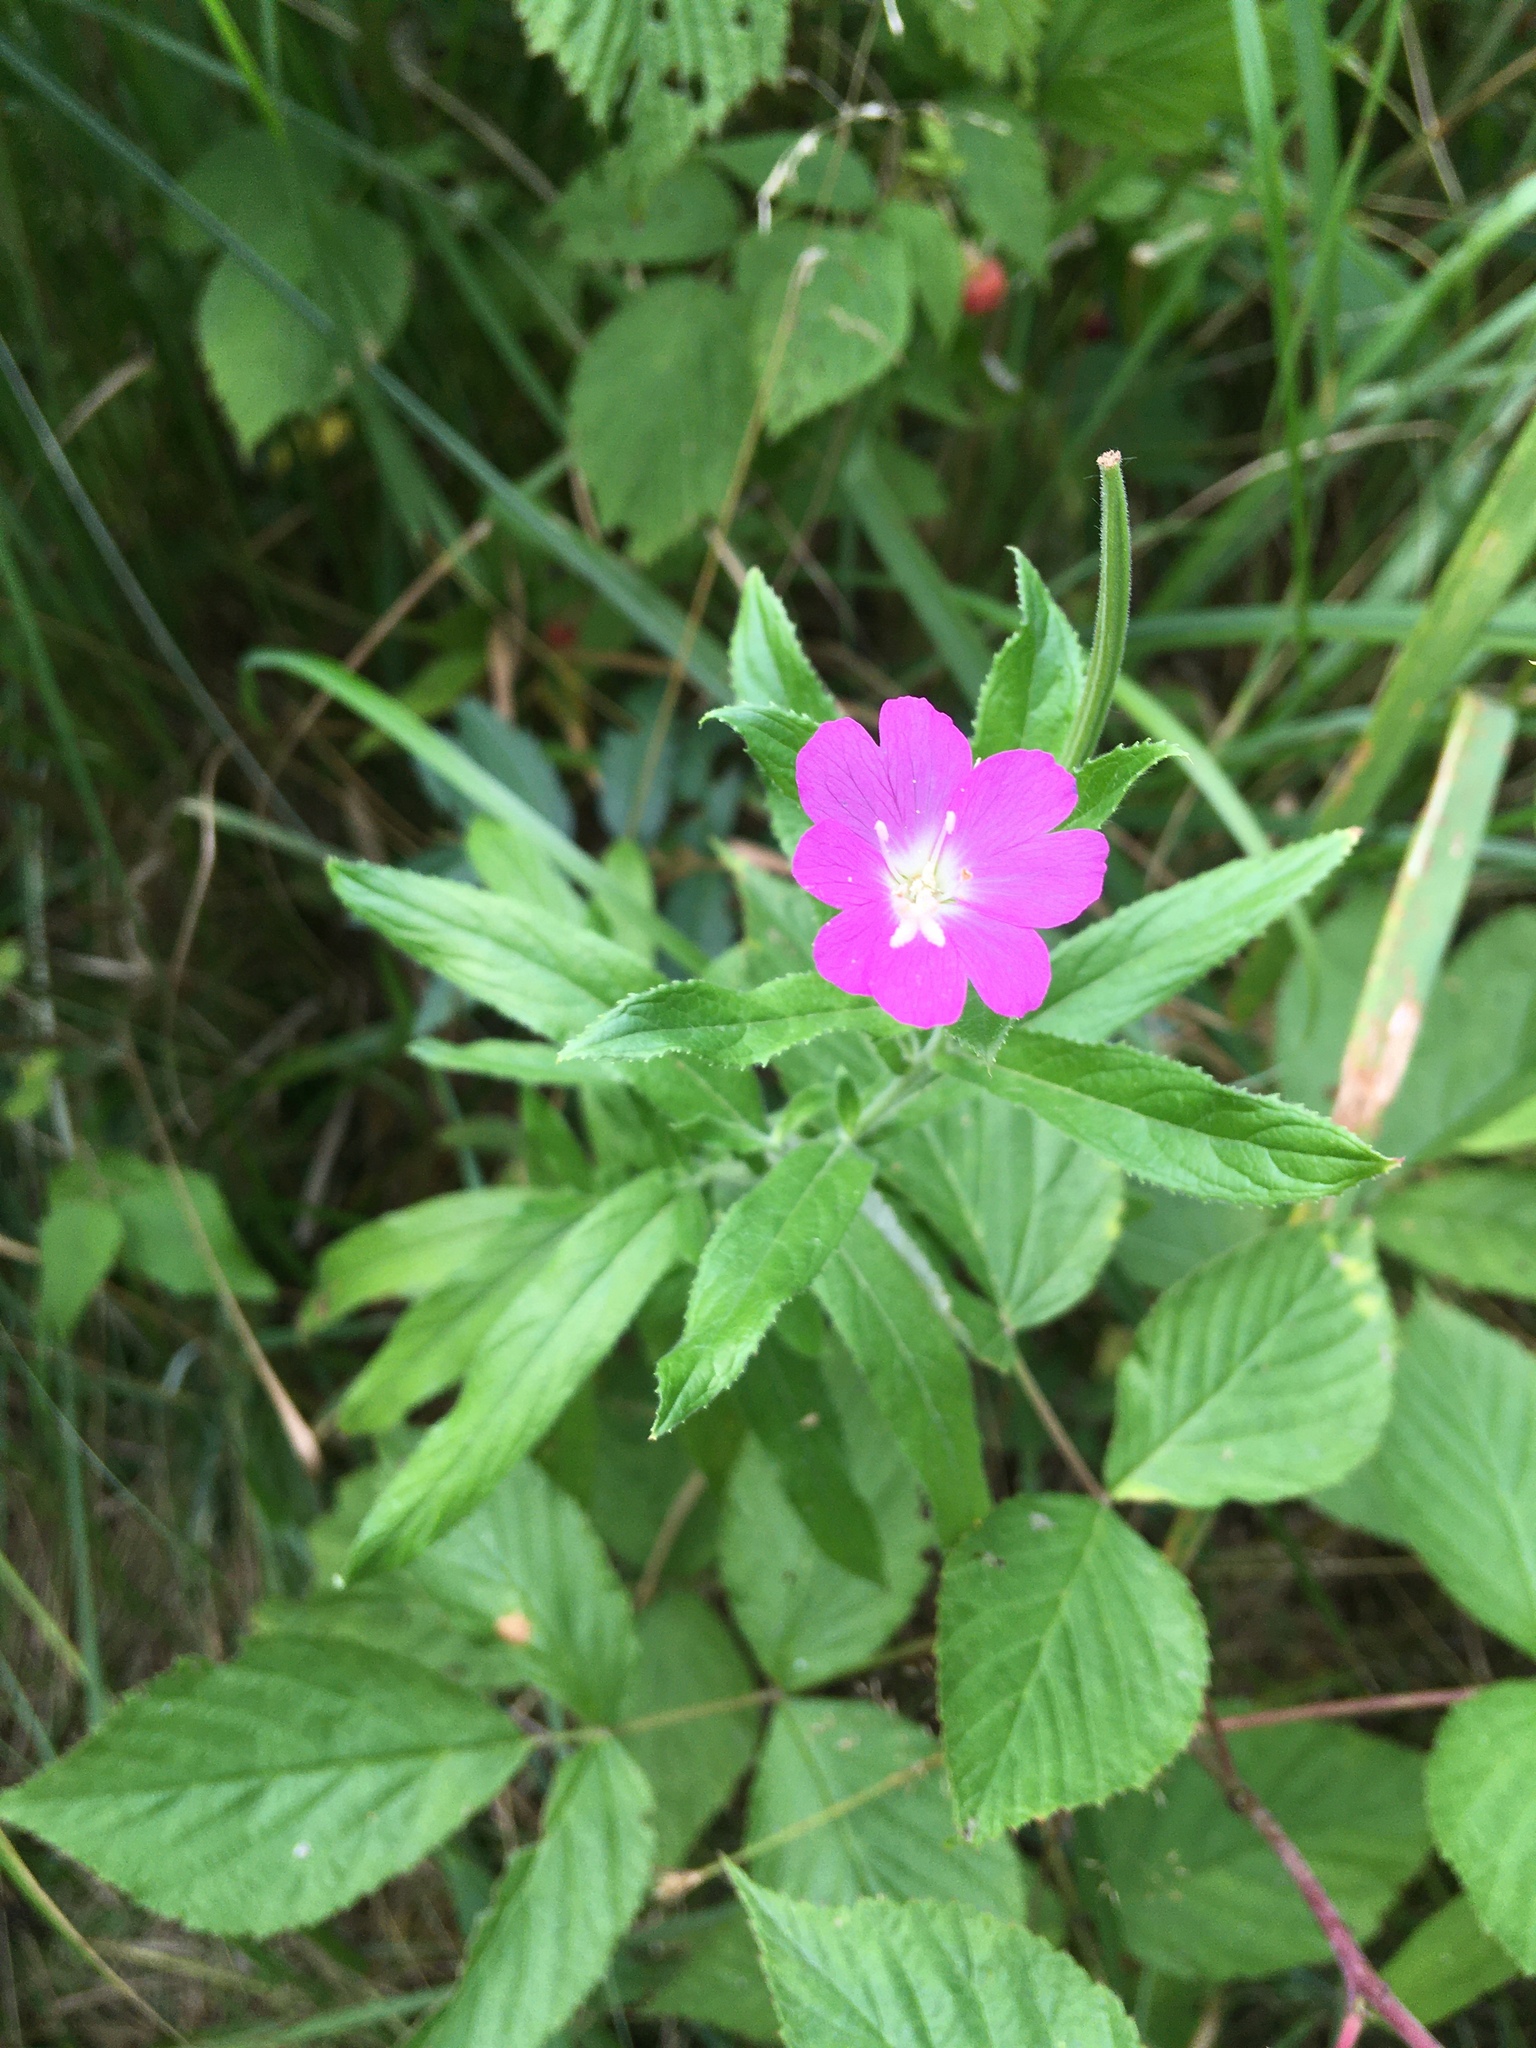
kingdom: Plantae
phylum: Tracheophyta
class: Magnoliopsida
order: Myrtales
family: Onagraceae
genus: Epilobium
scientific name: Epilobium hirsutum
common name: Great willowherb
